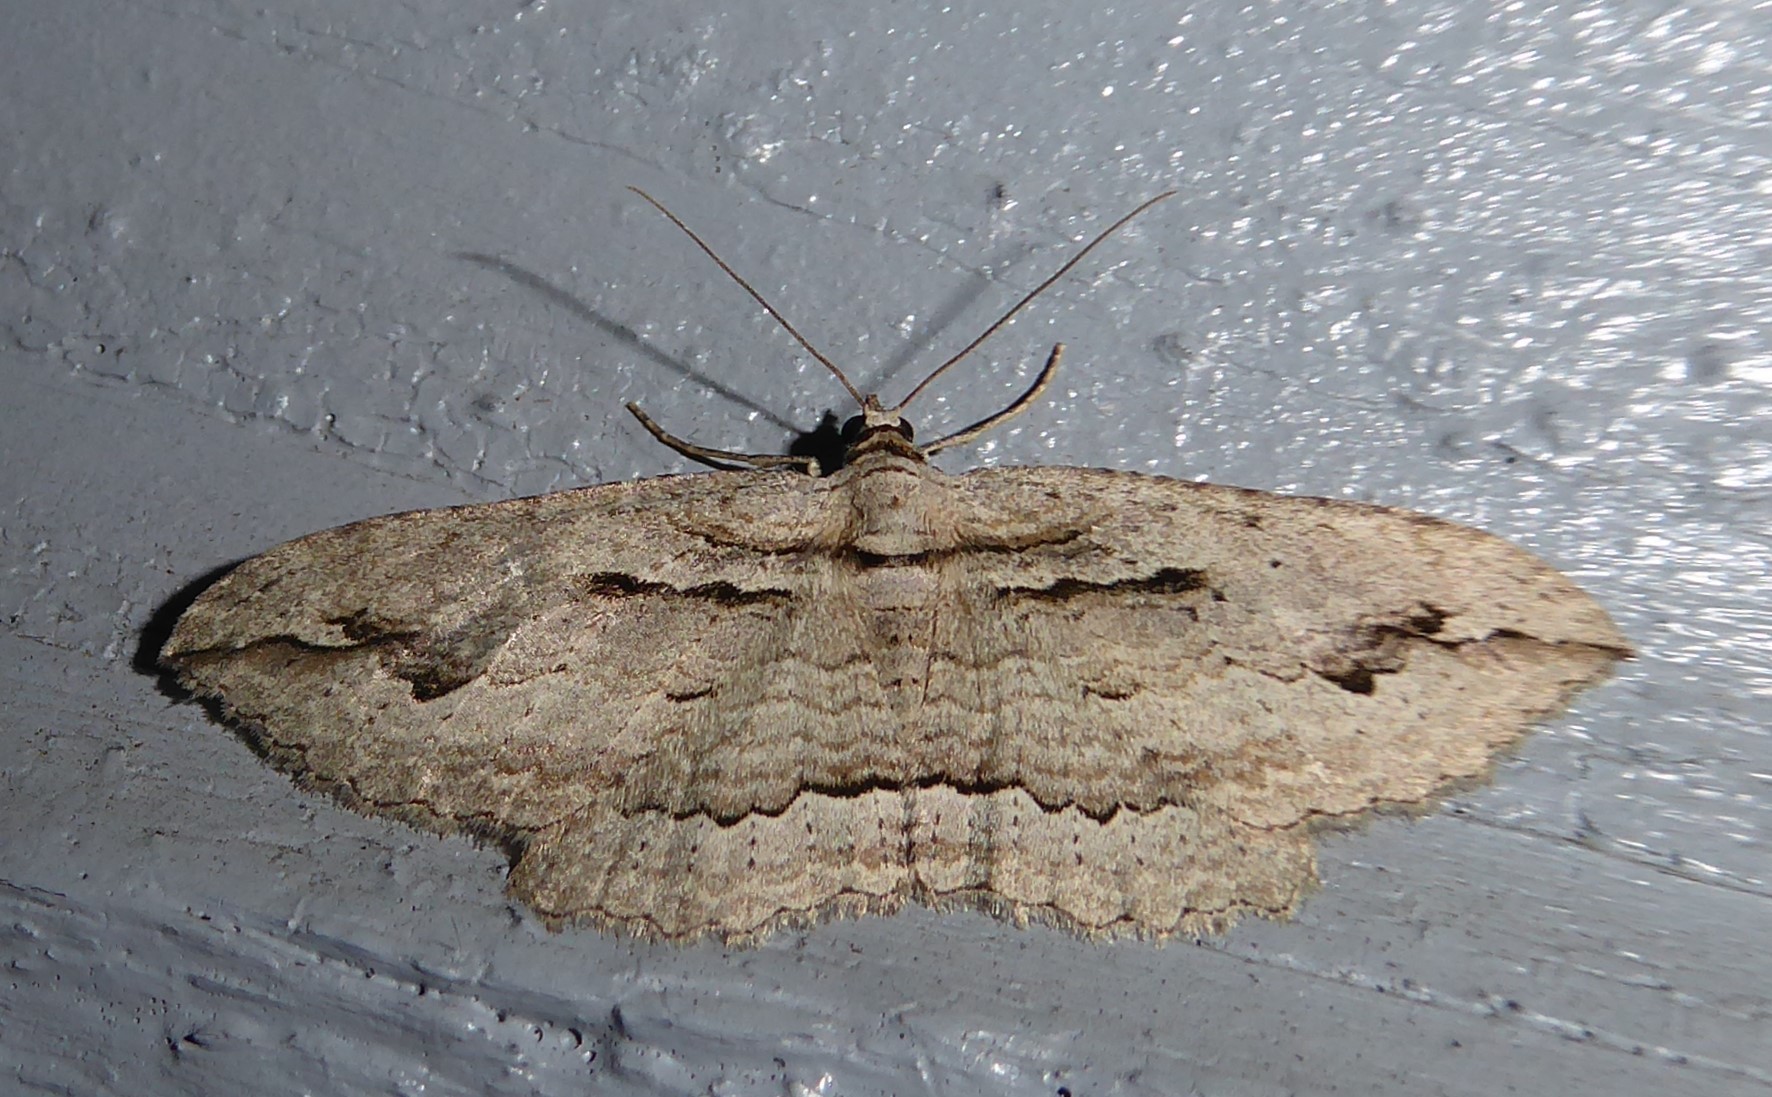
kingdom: Animalia
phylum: Arthropoda
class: Insecta
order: Lepidoptera
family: Geometridae
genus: Austrocidaria
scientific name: Austrocidaria gobiata
